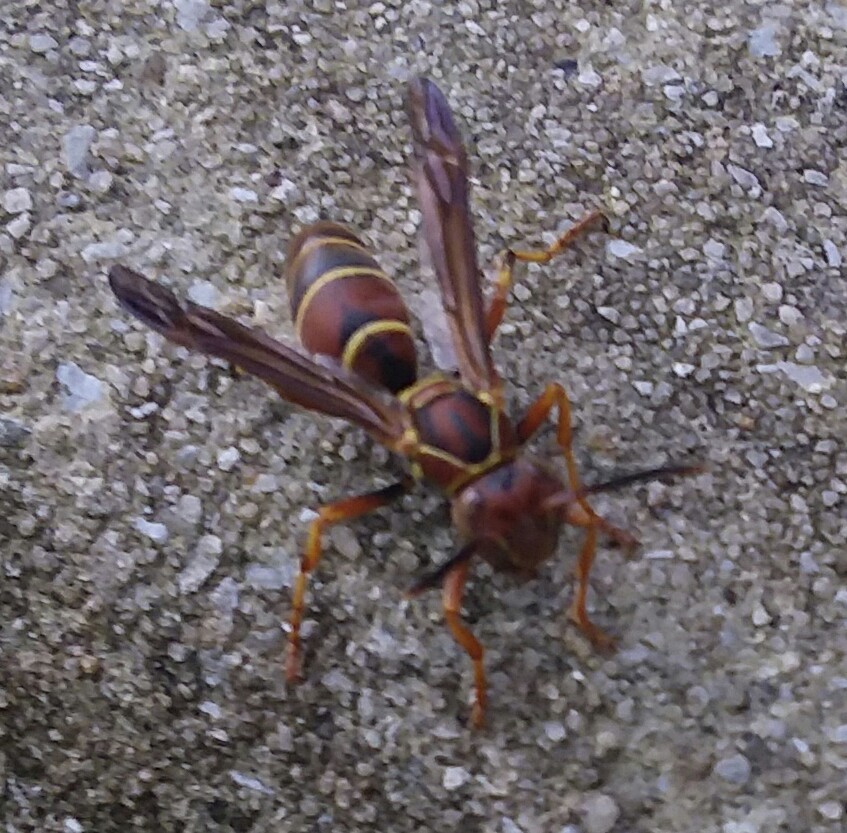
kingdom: Animalia
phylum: Arthropoda
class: Insecta
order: Hymenoptera
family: Eumenidae
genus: Polistes
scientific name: Polistes dorsalis
